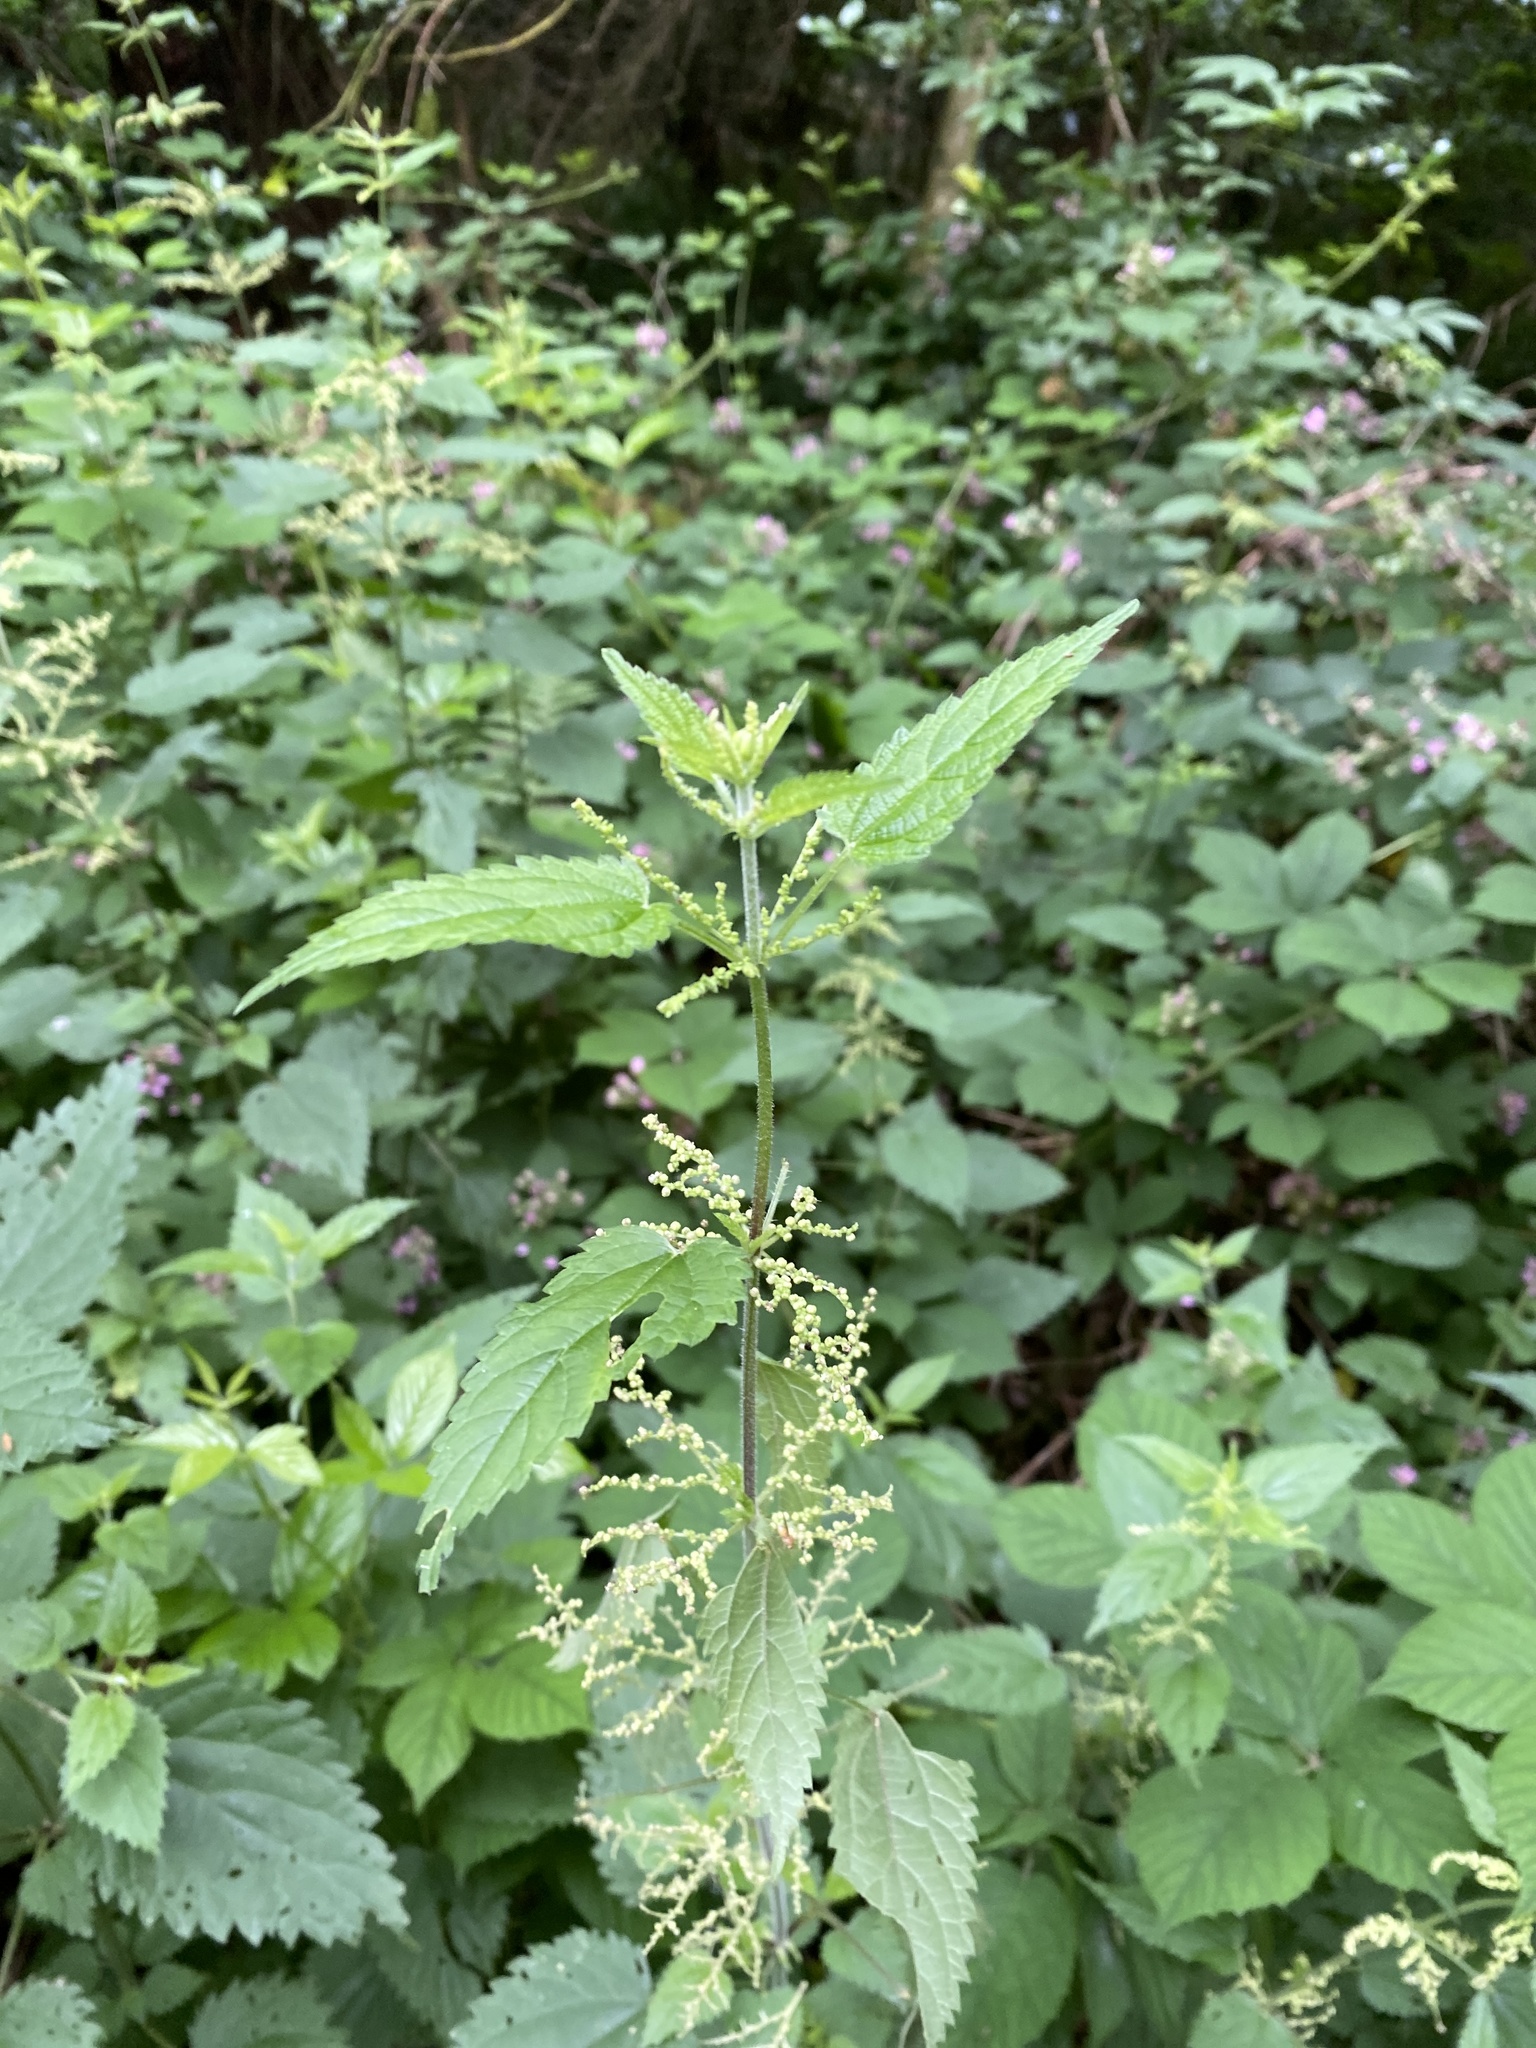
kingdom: Plantae
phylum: Tracheophyta
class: Magnoliopsida
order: Rosales
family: Urticaceae
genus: Urtica
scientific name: Urtica dioica
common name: Common nettle
